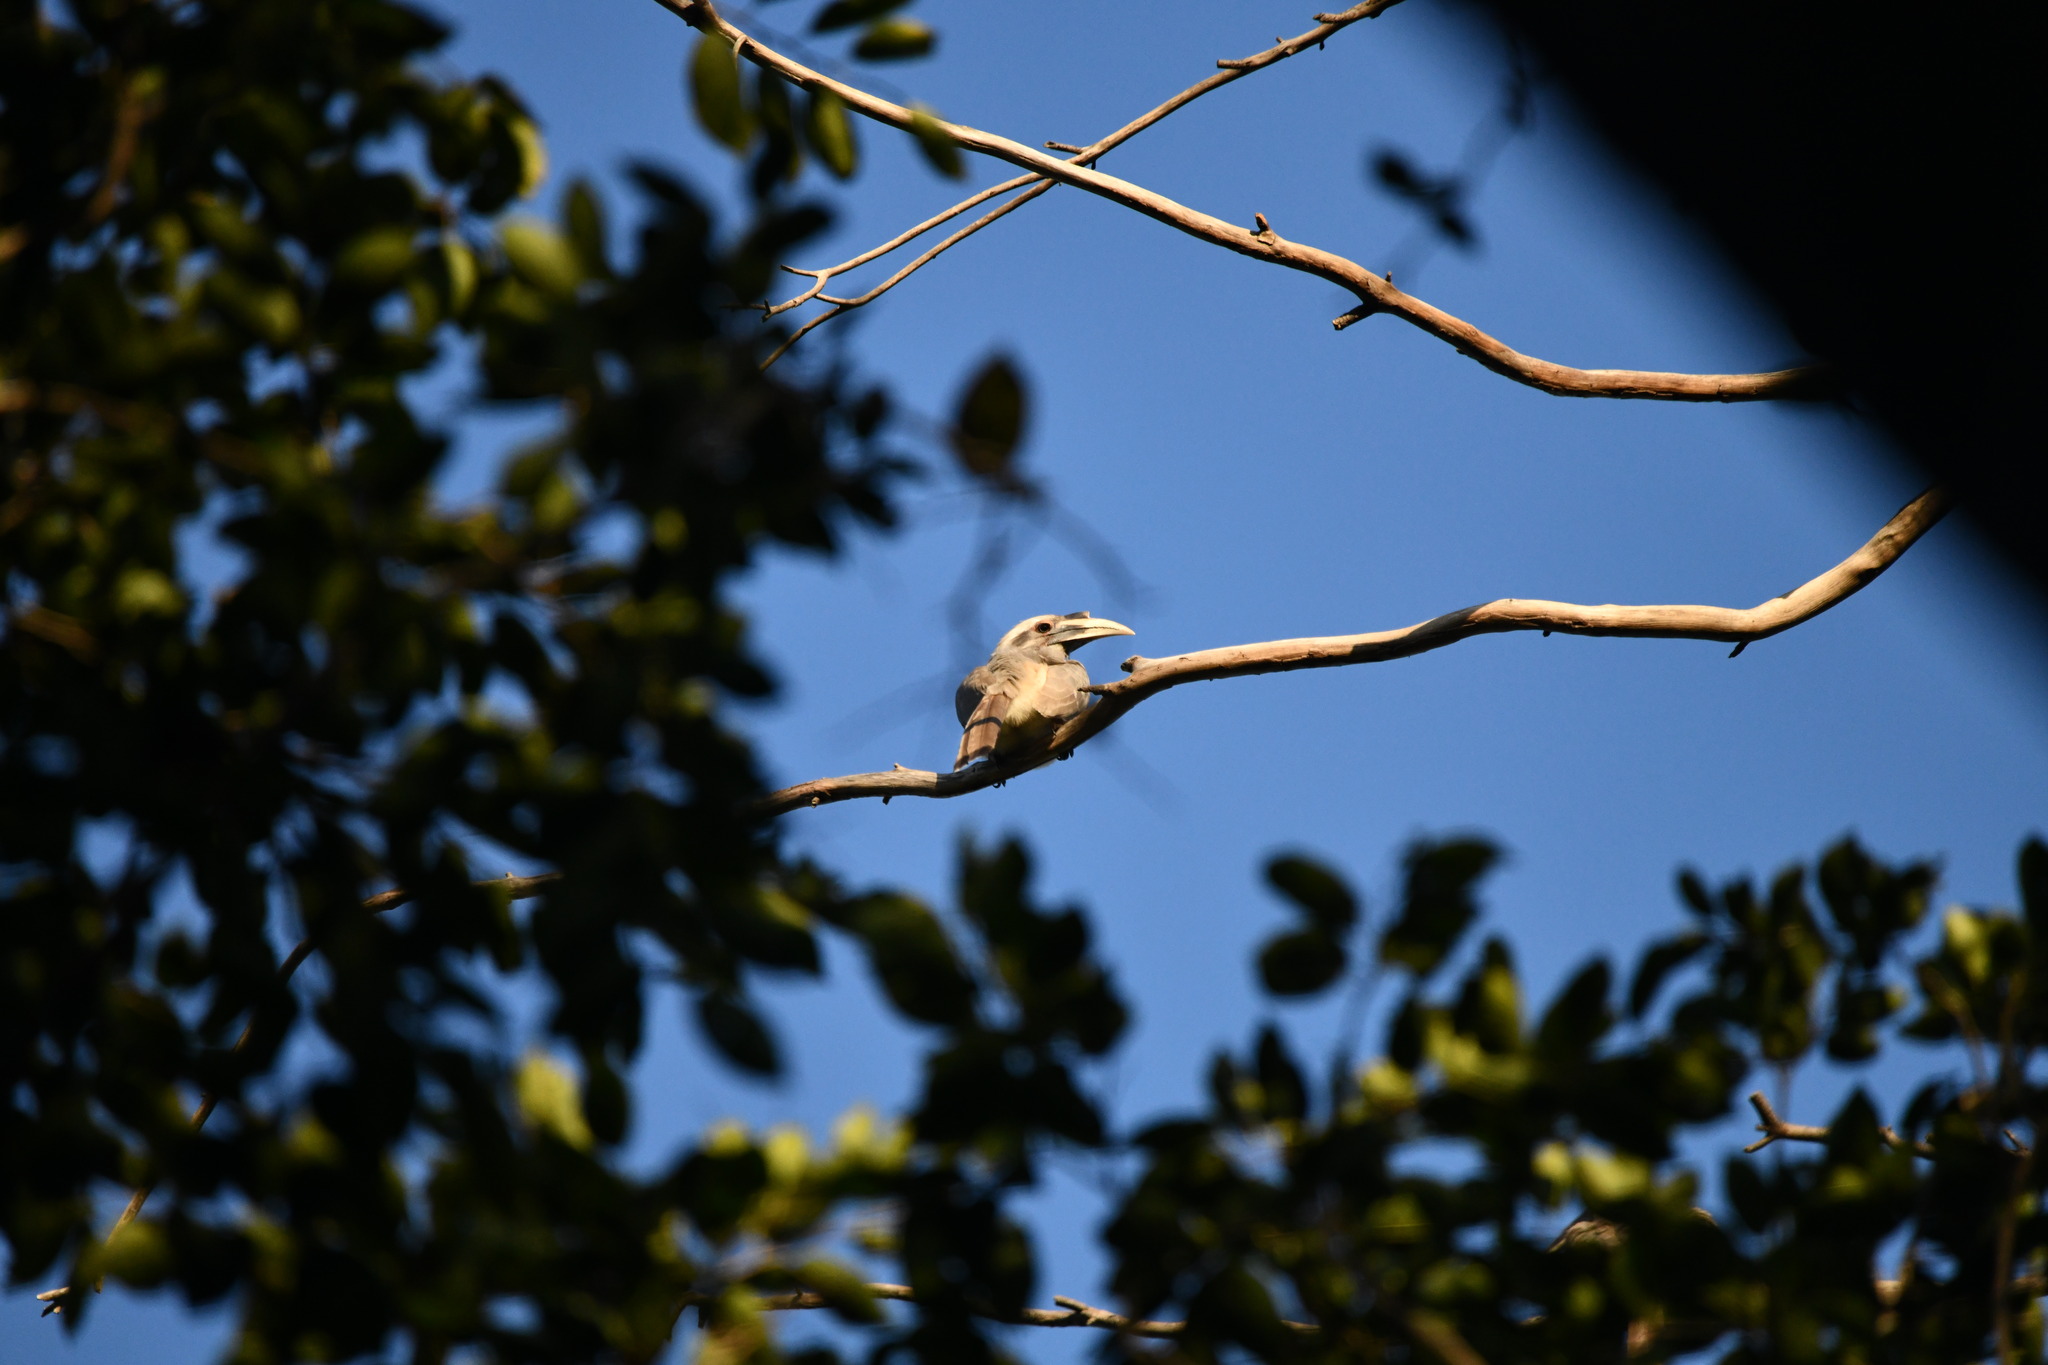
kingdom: Animalia
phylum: Chordata
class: Aves
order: Bucerotiformes
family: Bucerotidae
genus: Ocyceros
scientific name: Ocyceros birostris
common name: Indian grey hornbill
